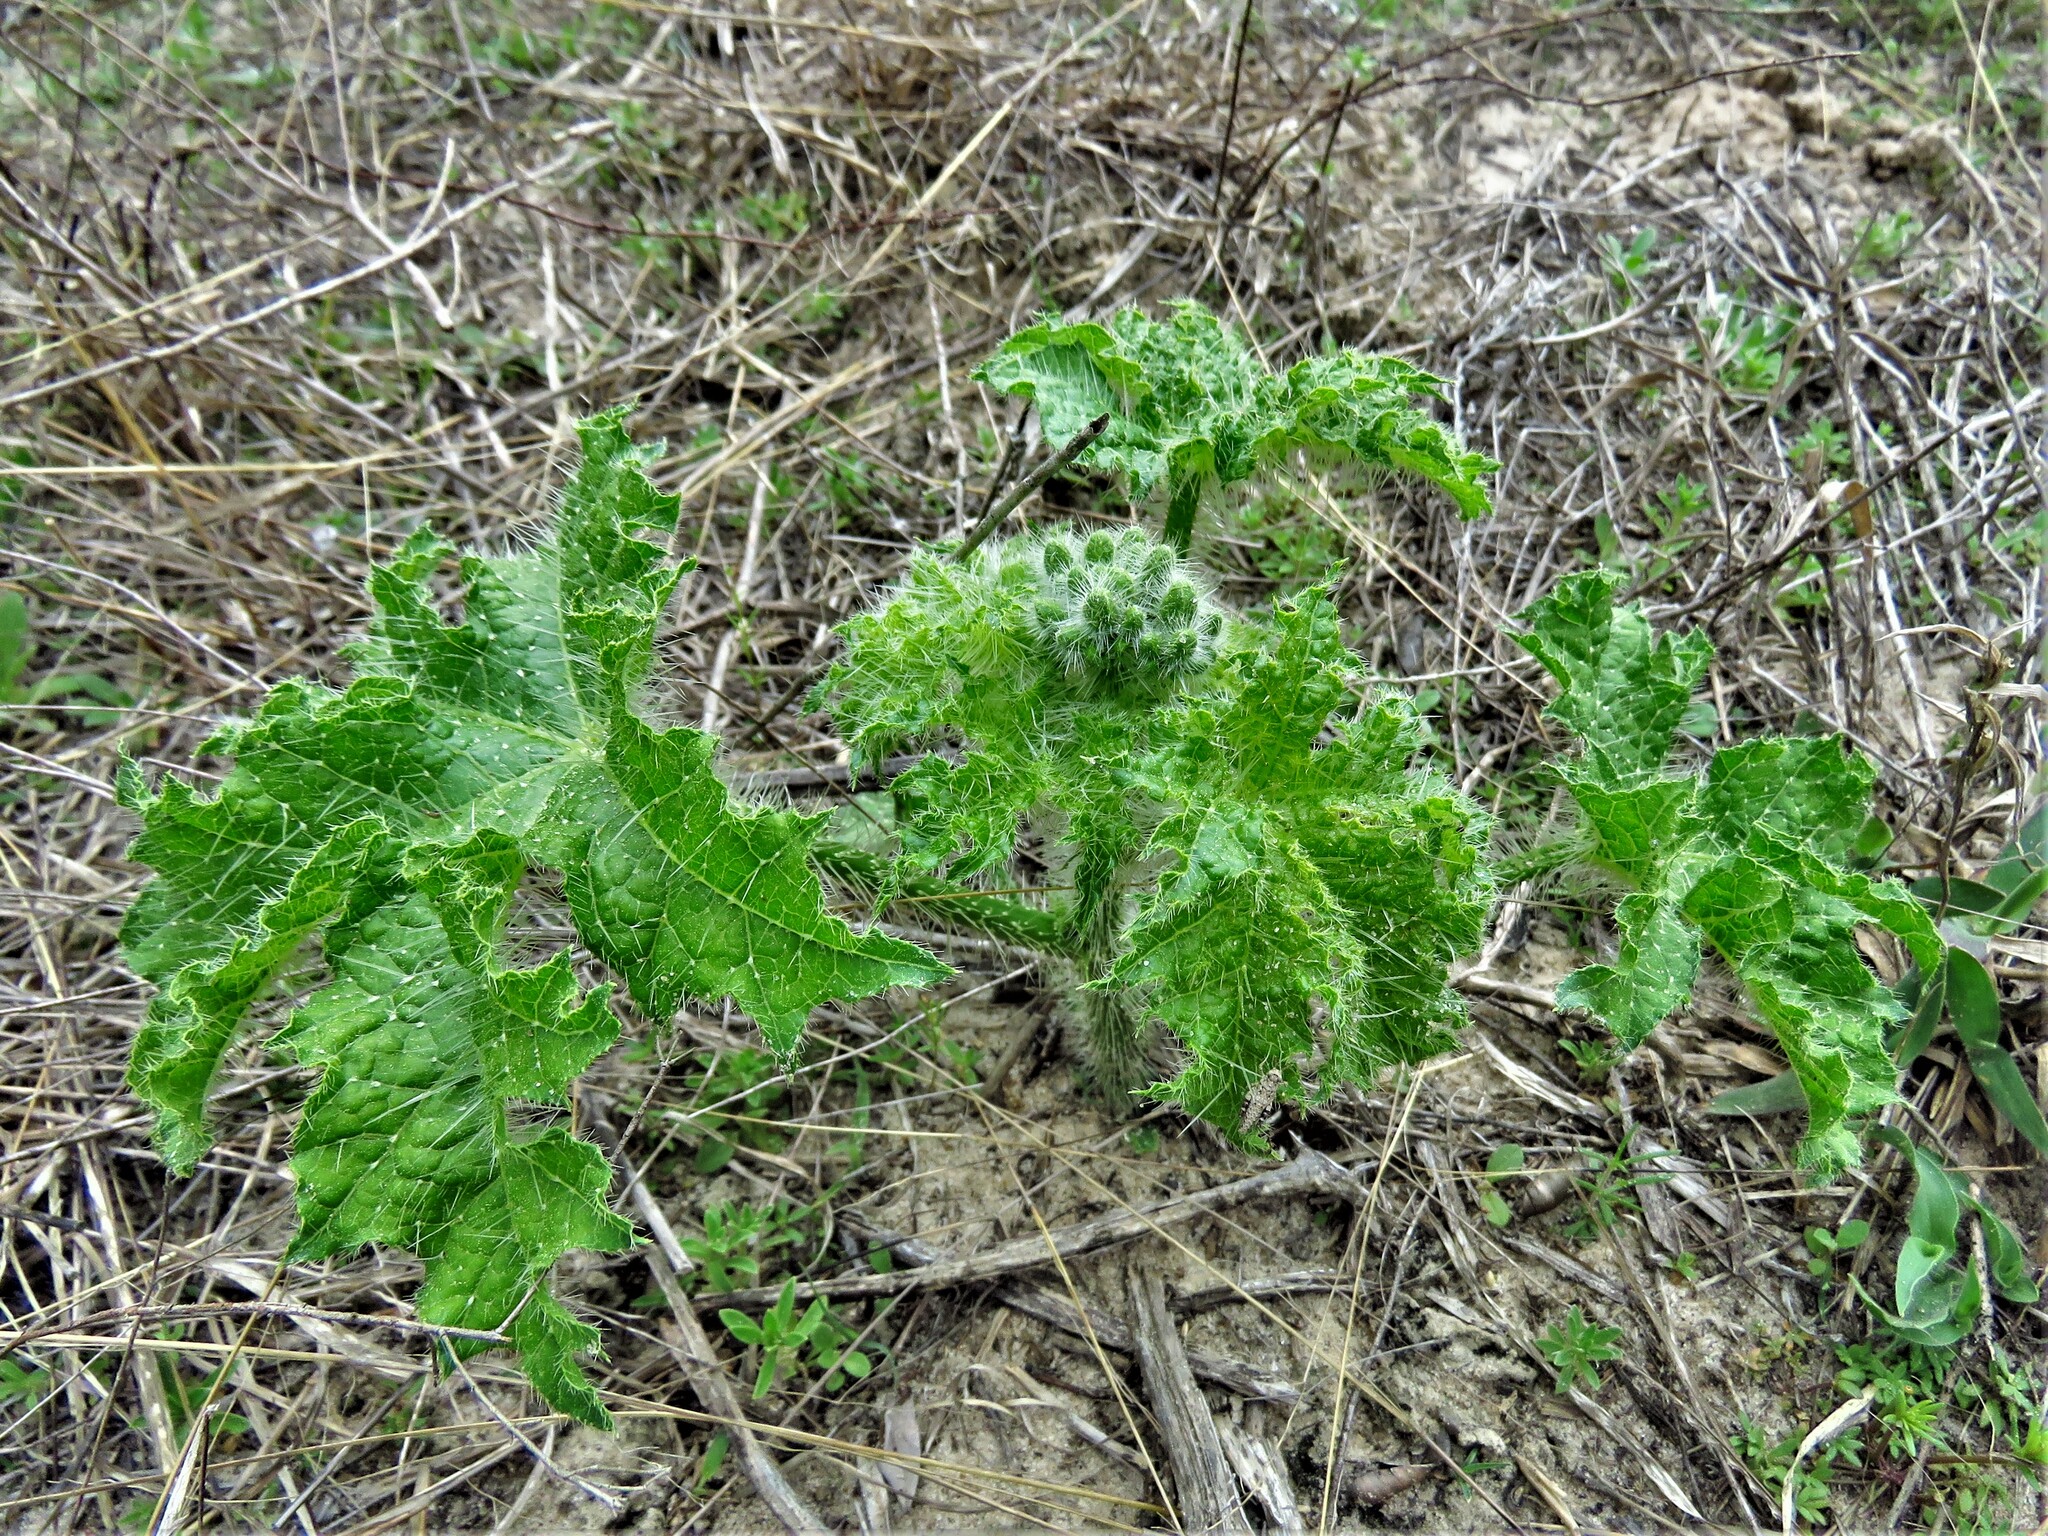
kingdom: Plantae
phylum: Tracheophyta
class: Magnoliopsida
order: Malpighiales
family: Euphorbiaceae
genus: Cnidoscolus
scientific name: Cnidoscolus texanus
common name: Texas bull-nettle
